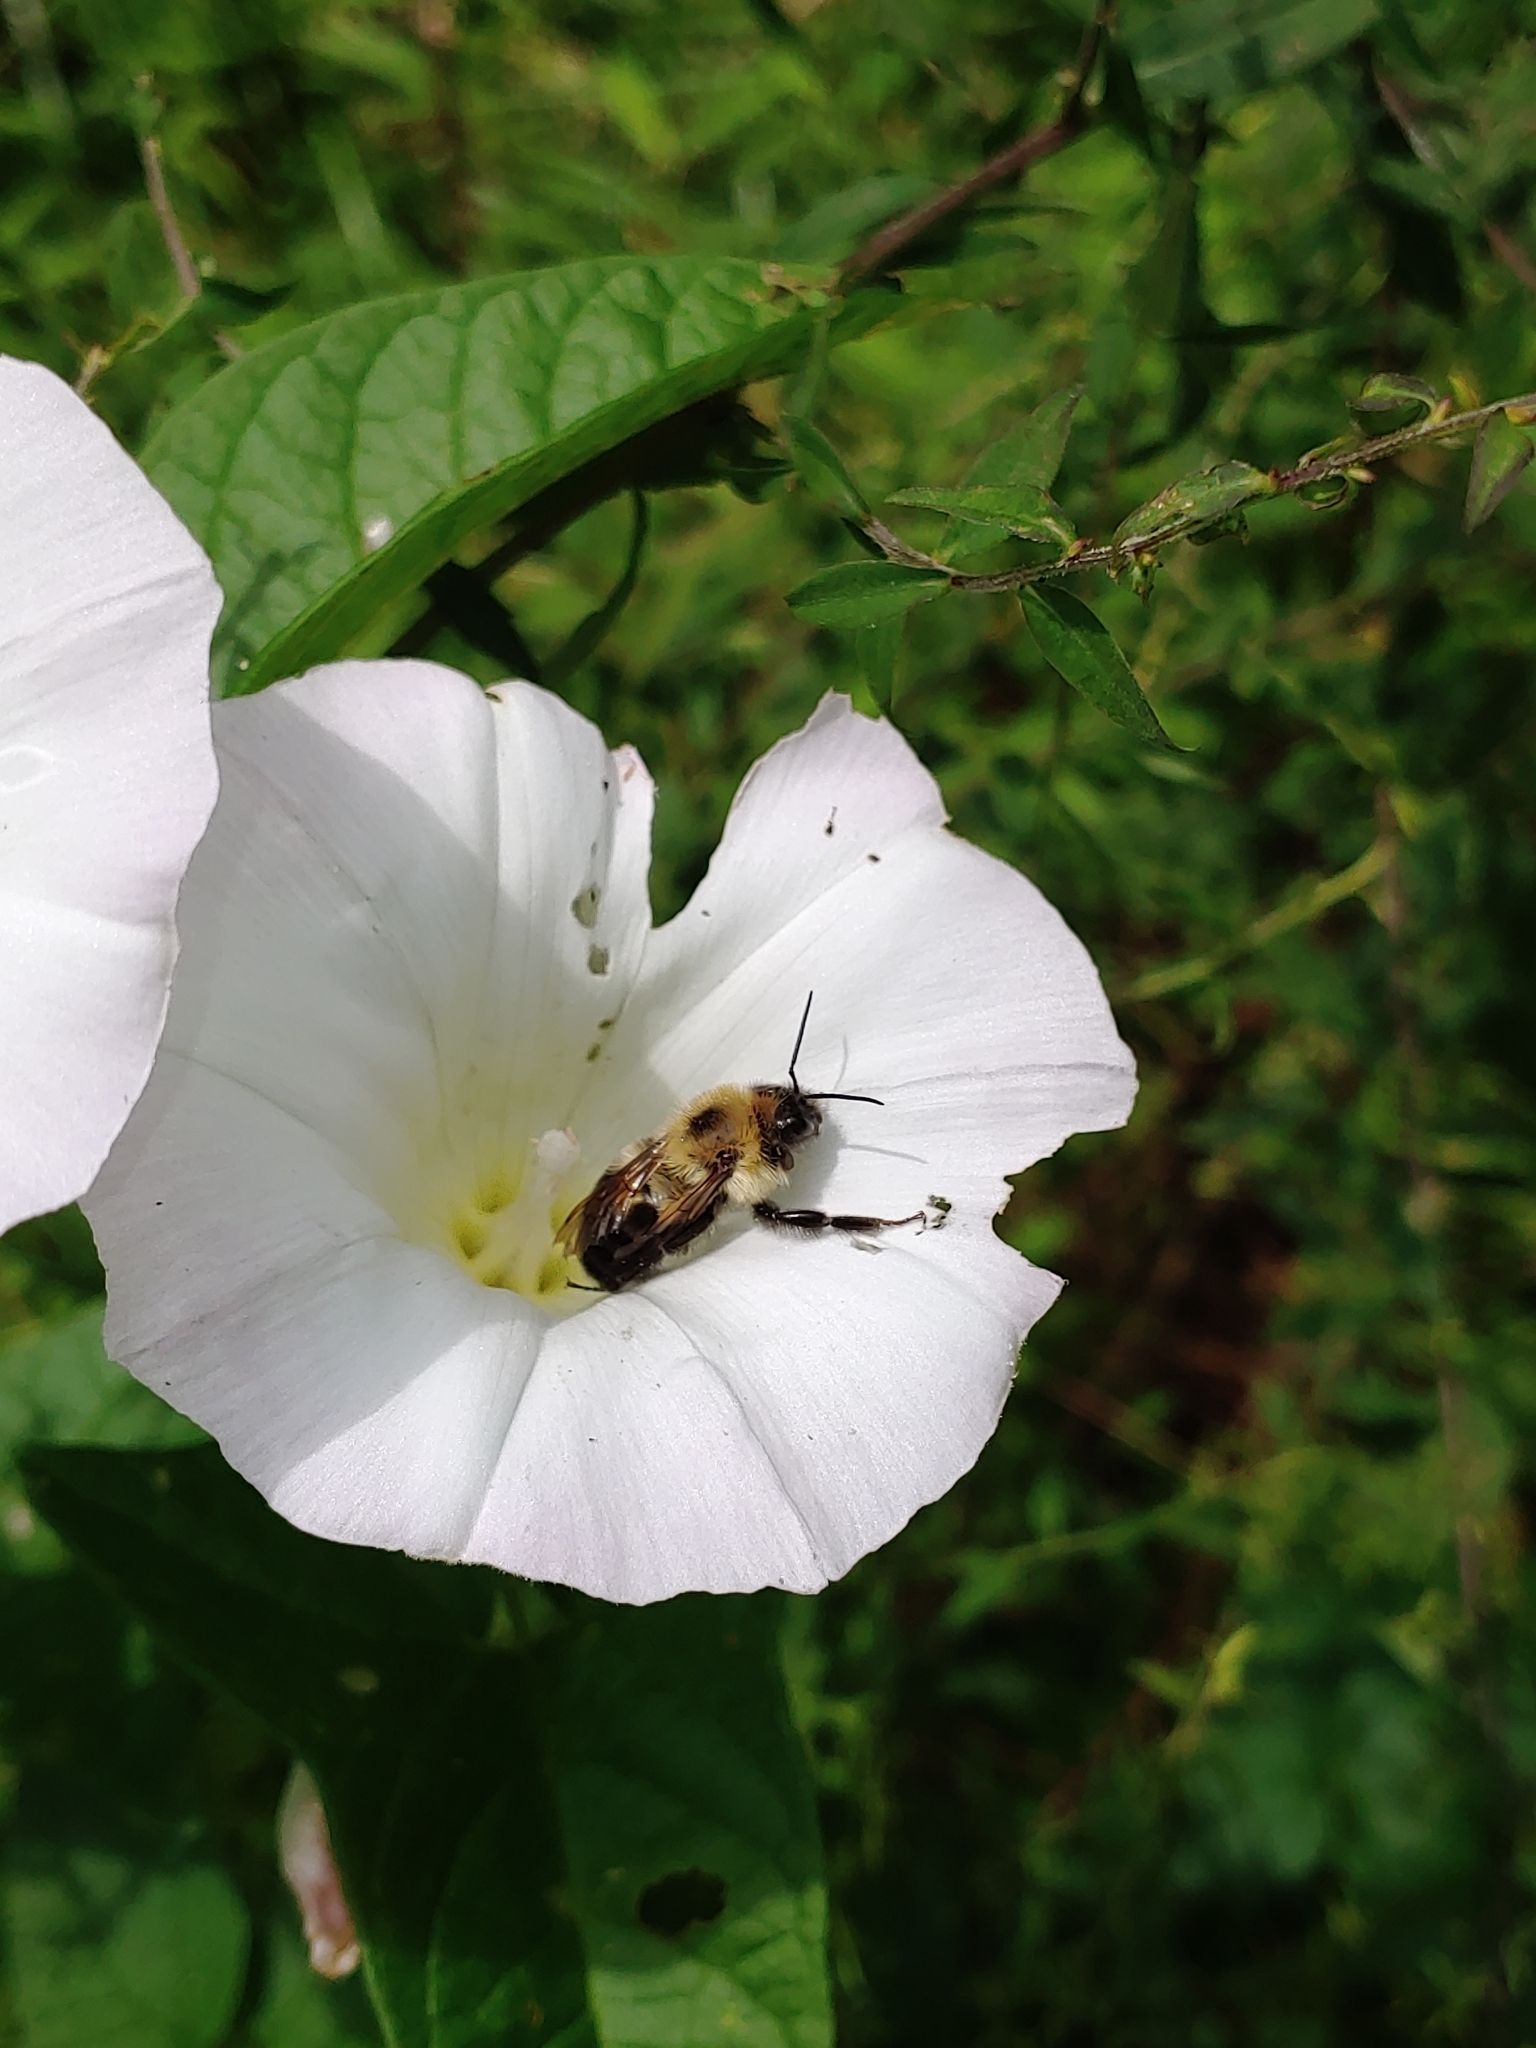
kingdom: Animalia
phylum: Arthropoda
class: Insecta
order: Hymenoptera
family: Apidae
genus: Bombus
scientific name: Bombus bimaculatus
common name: Two-spotted bumble bee
